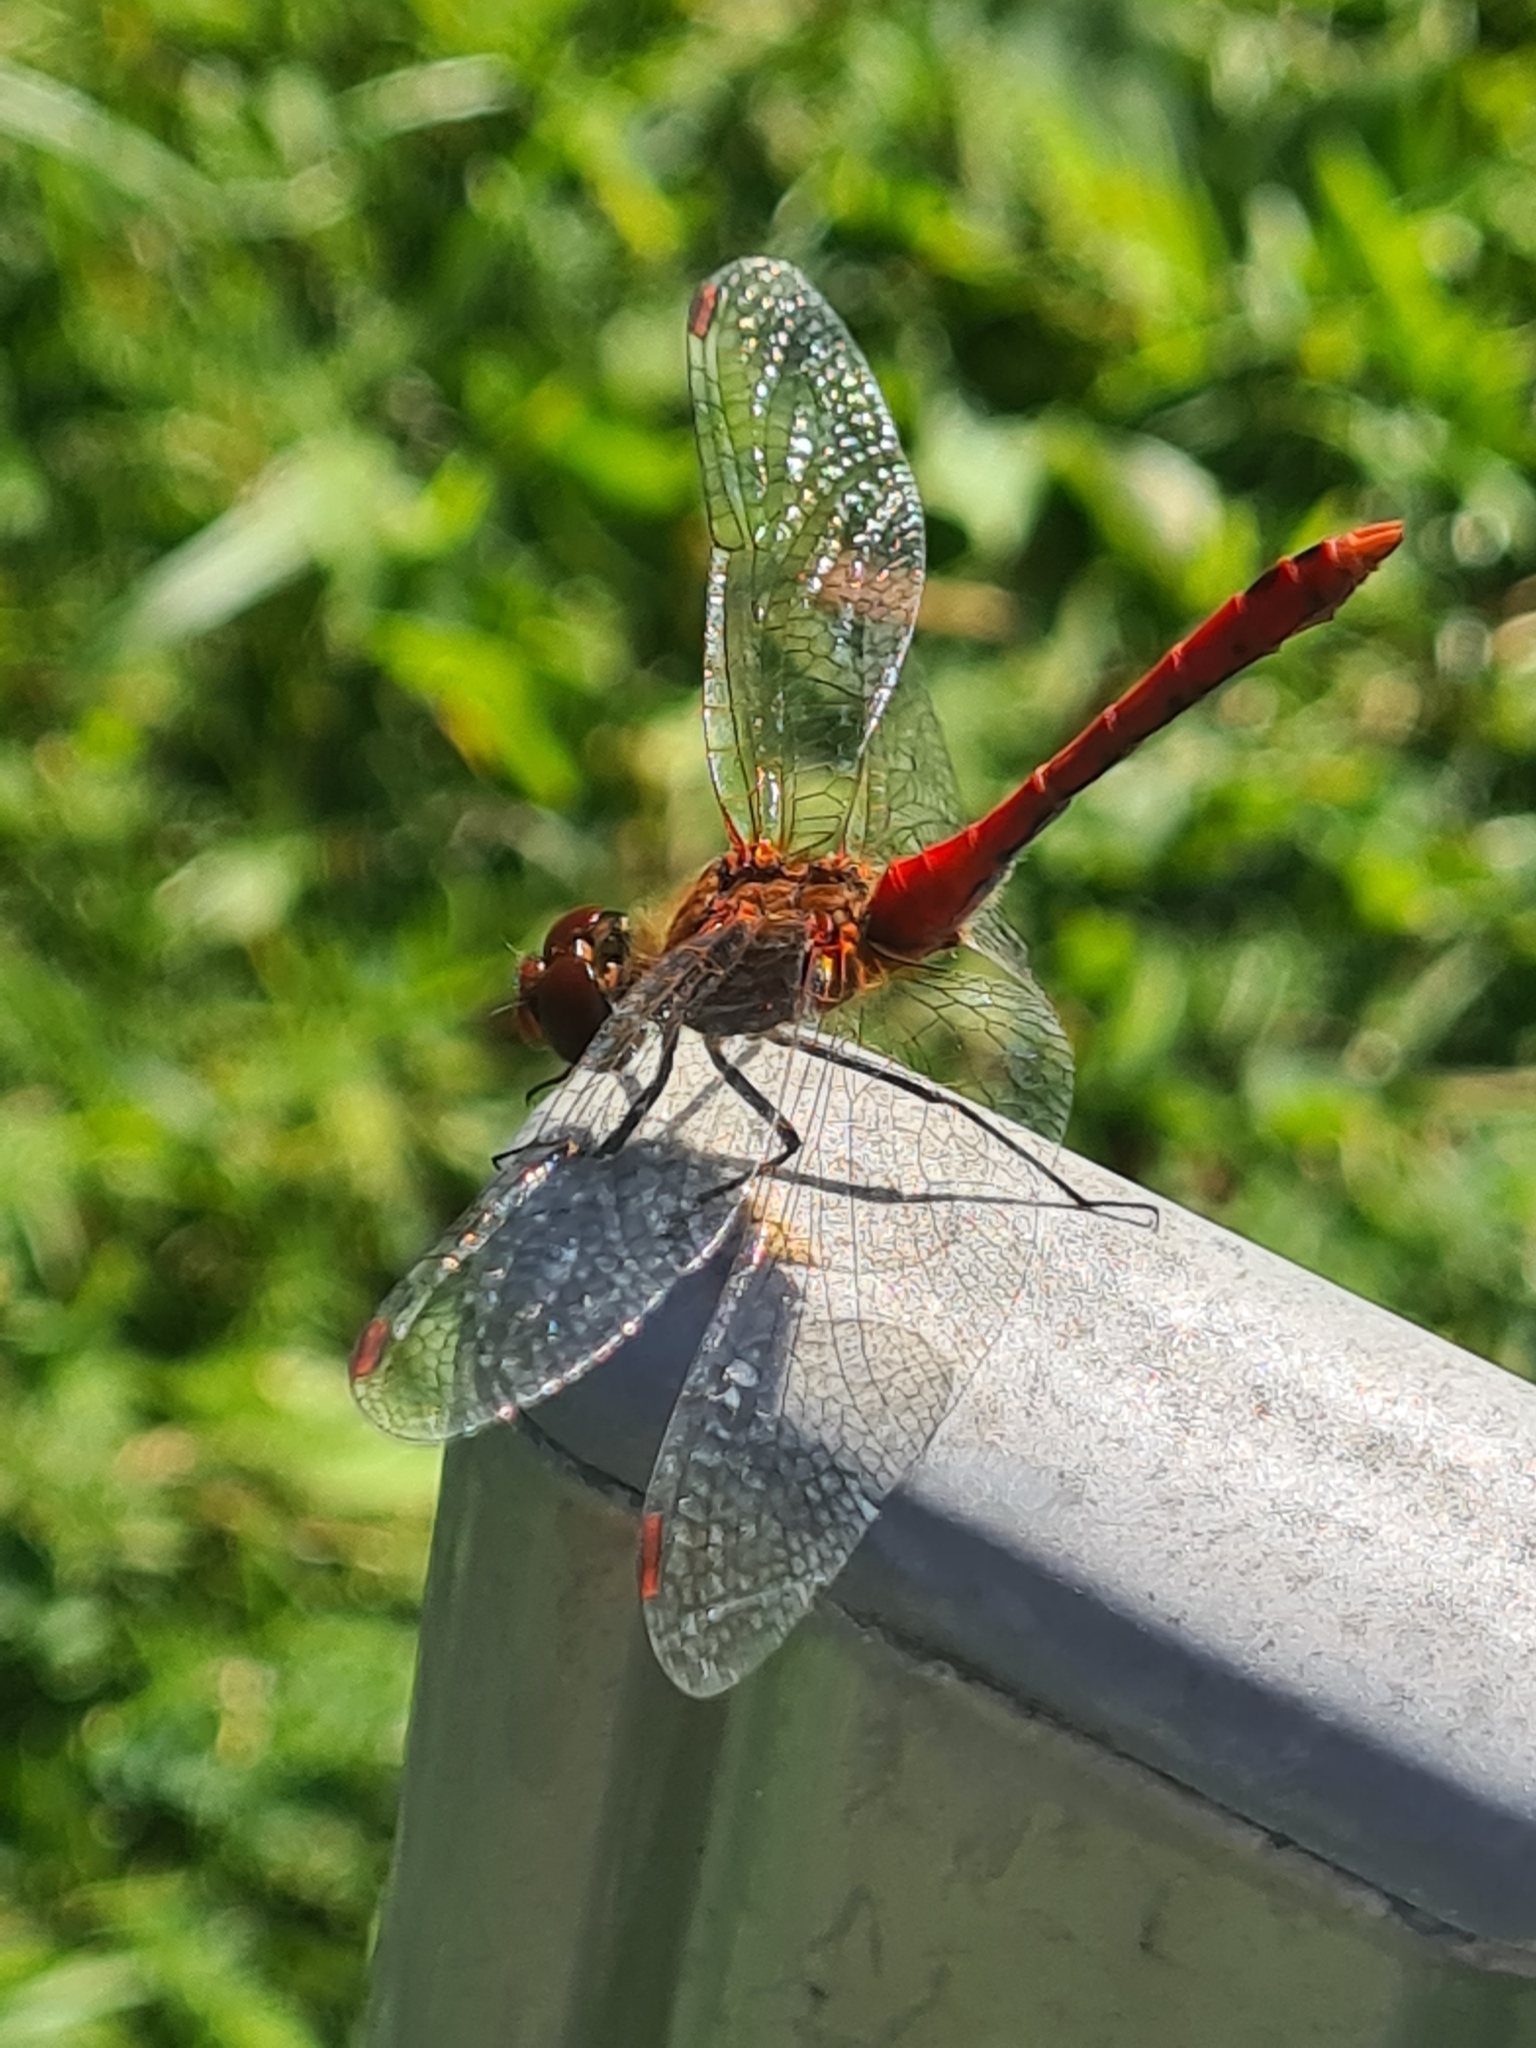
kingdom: Animalia
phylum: Arthropoda
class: Insecta
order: Odonata
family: Libellulidae
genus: Sympetrum
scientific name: Sympetrum sanguineum
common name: Ruddy darter
